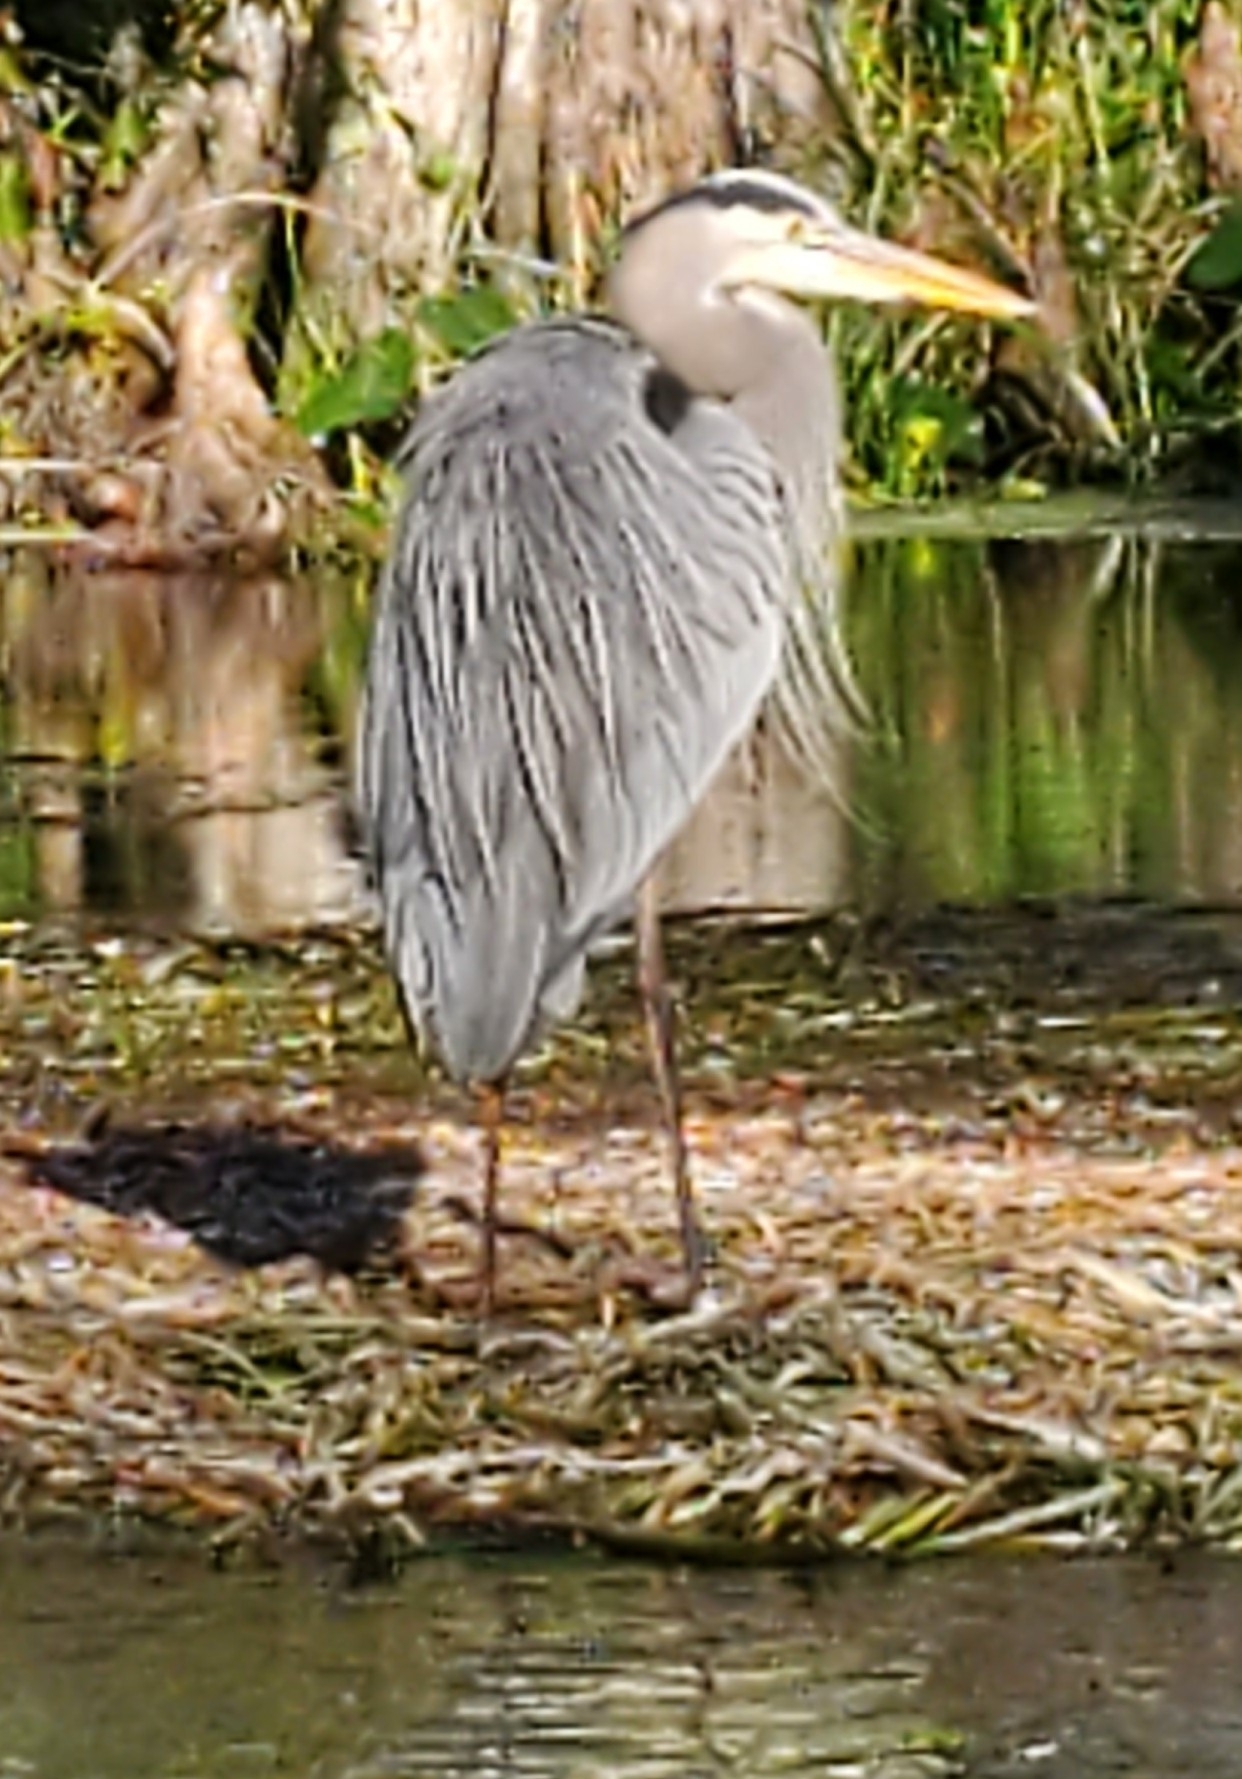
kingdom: Animalia
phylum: Chordata
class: Aves
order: Pelecaniformes
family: Ardeidae
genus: Ardea
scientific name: Ardea herodias
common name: Great blue heron
